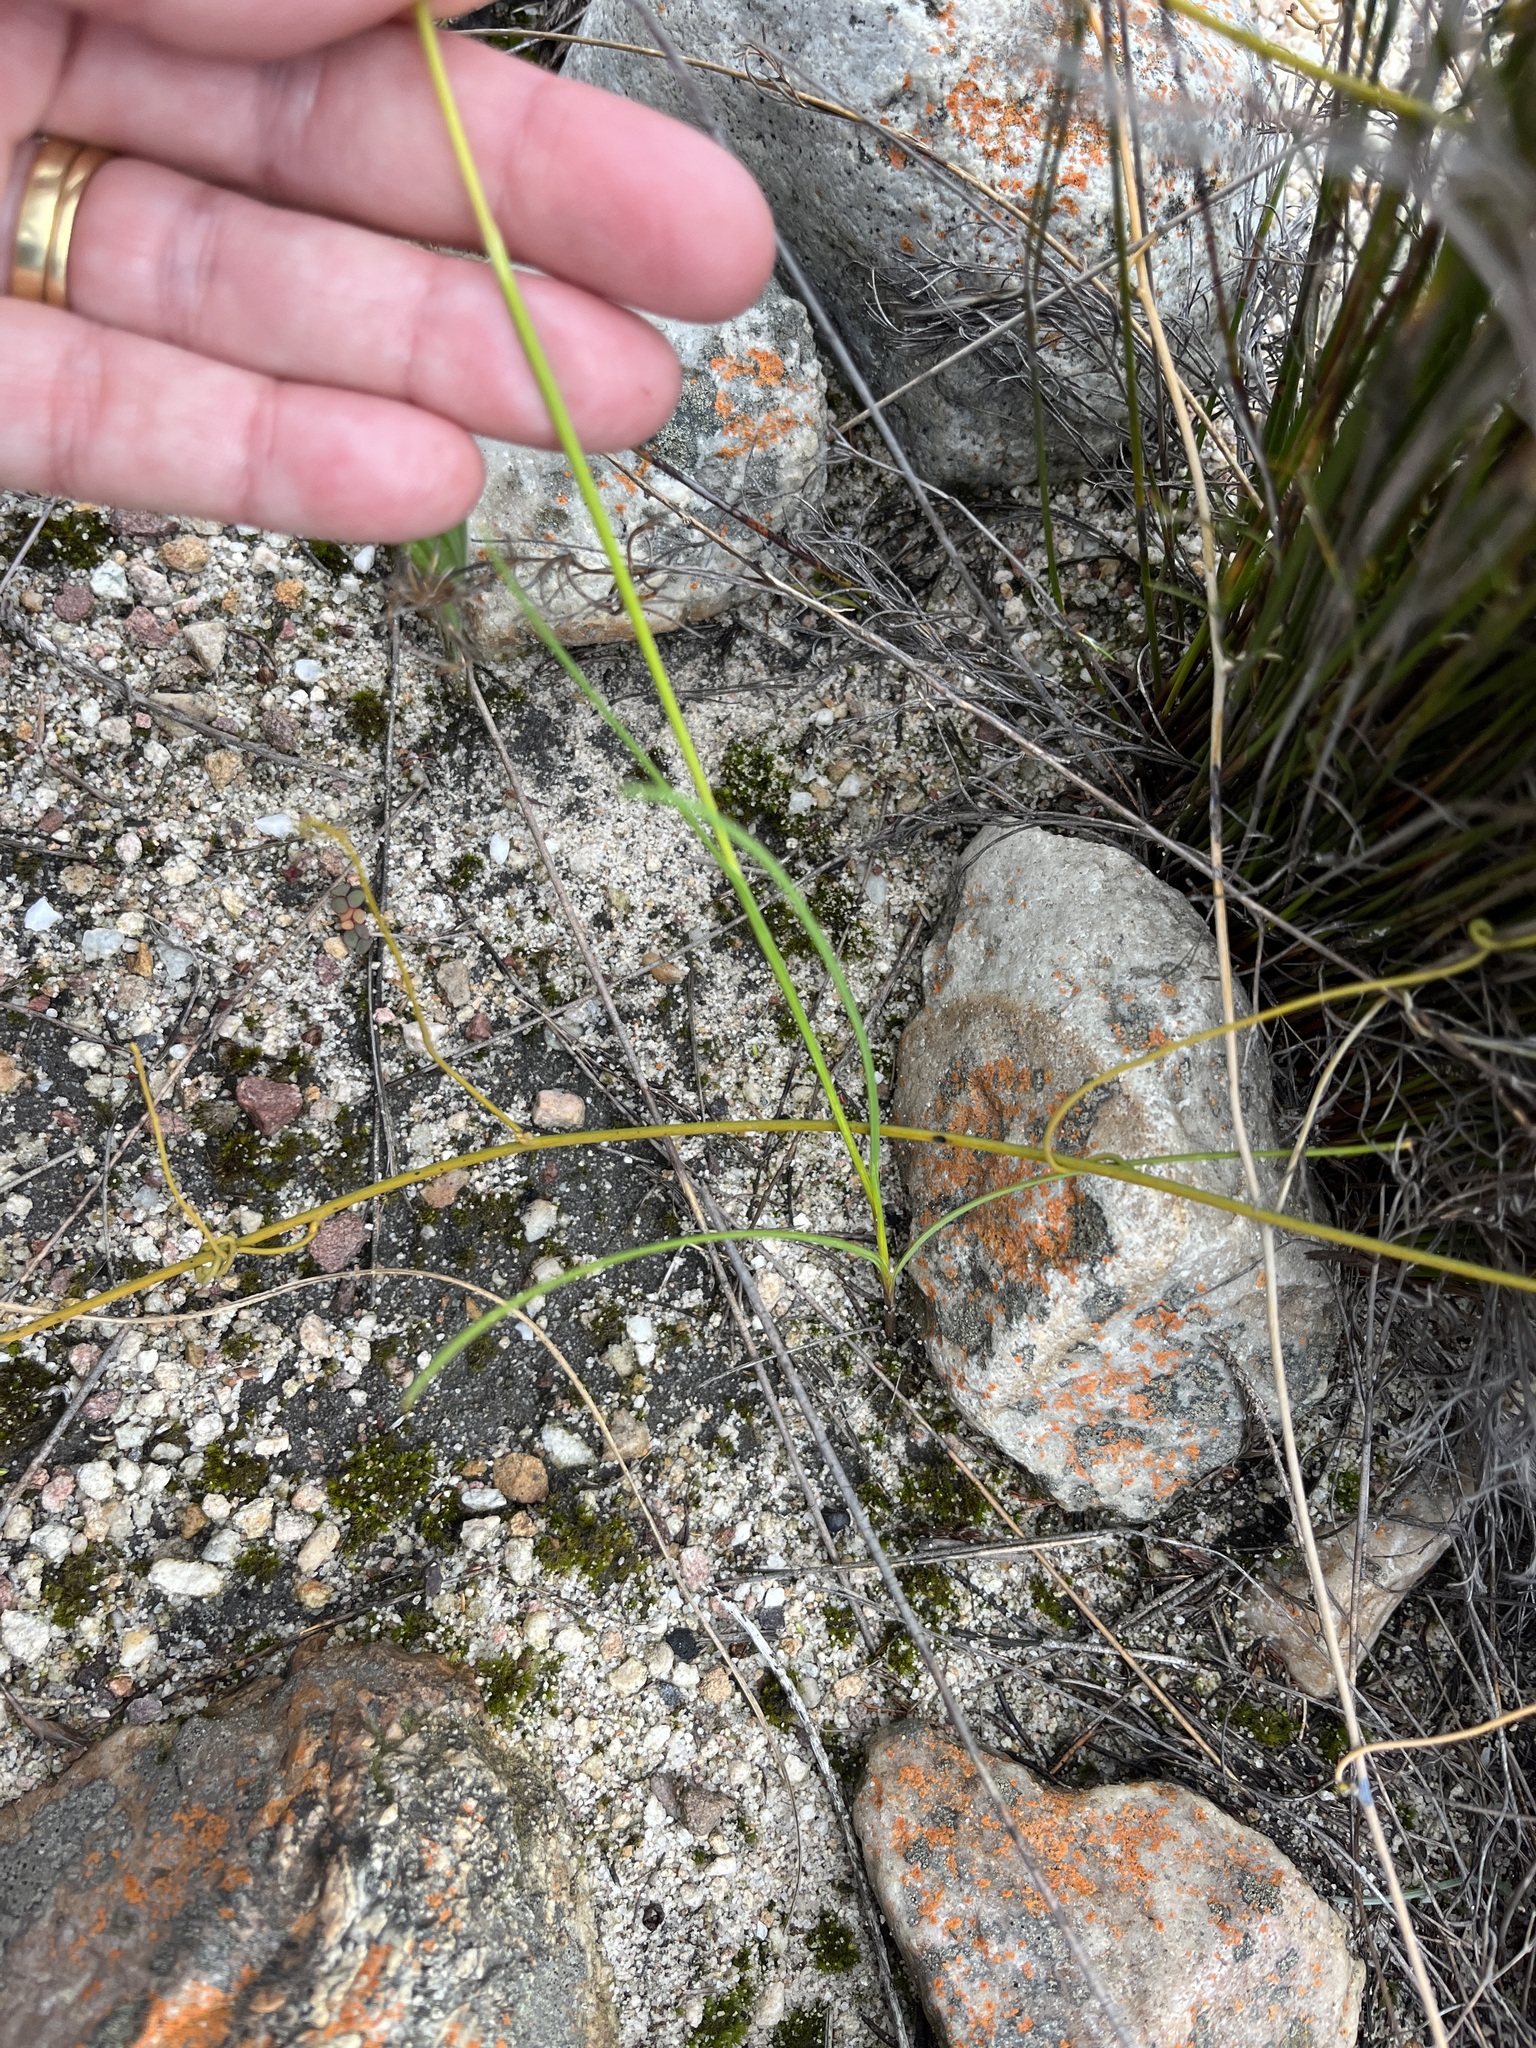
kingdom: Plantae
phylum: Tracheophyta
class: Liliopsida
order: Asparagales
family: Iridaceae
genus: Hesperantha
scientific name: Hesperantha radiata
